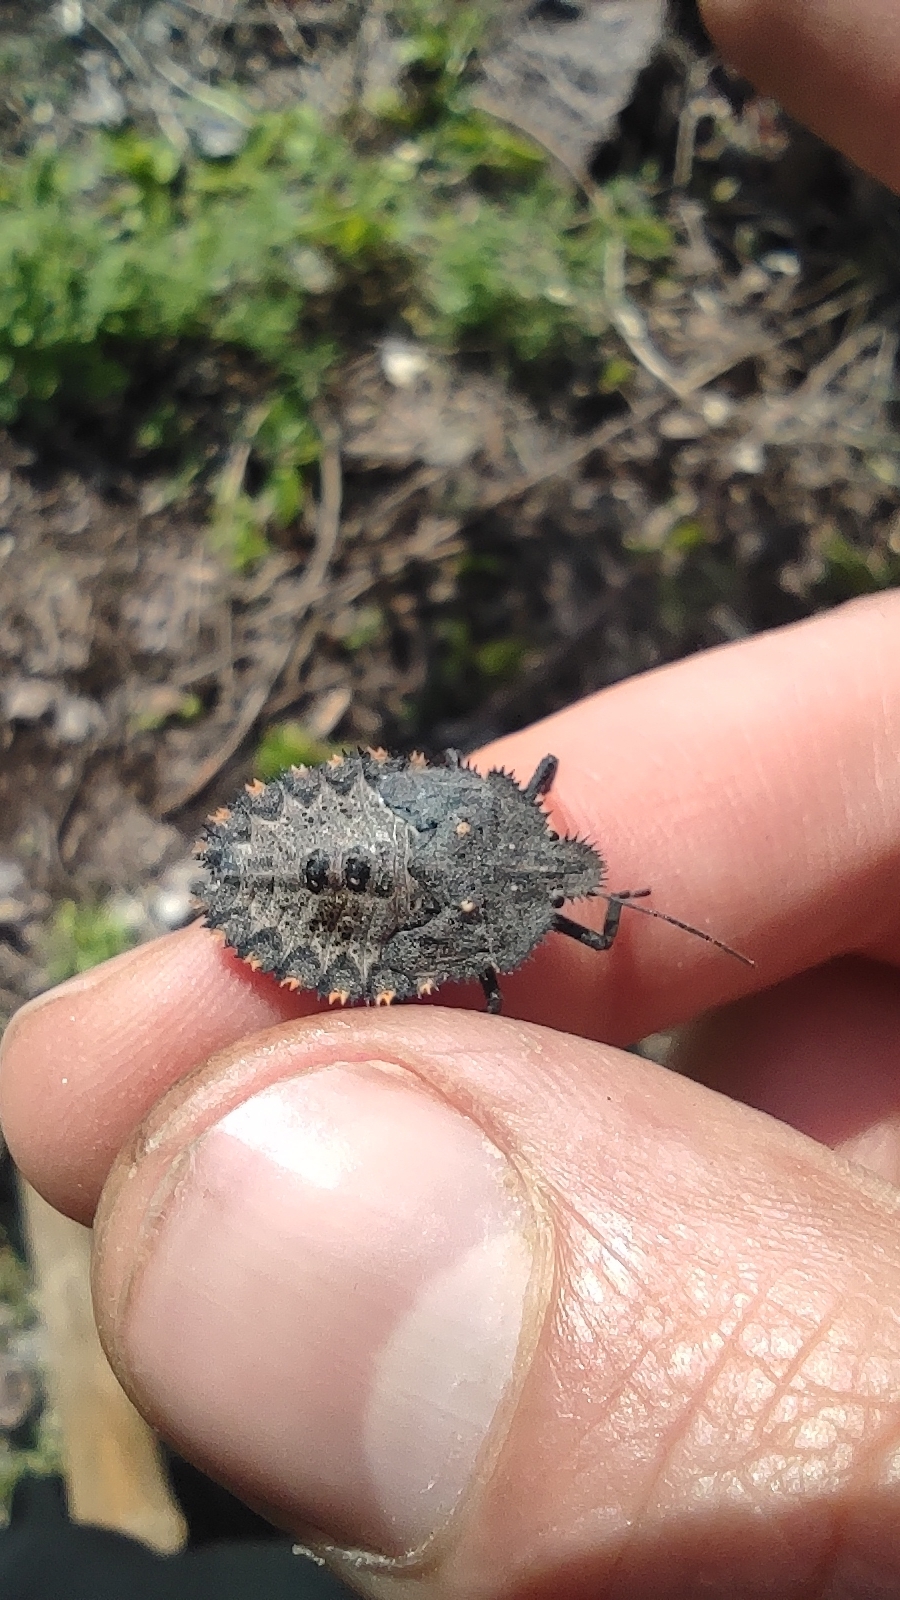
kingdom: Animalia
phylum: Arthropoda
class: Insecta
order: Hemiptera
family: Pentatomidae
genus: Mustha
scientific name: Mustha spinosula
